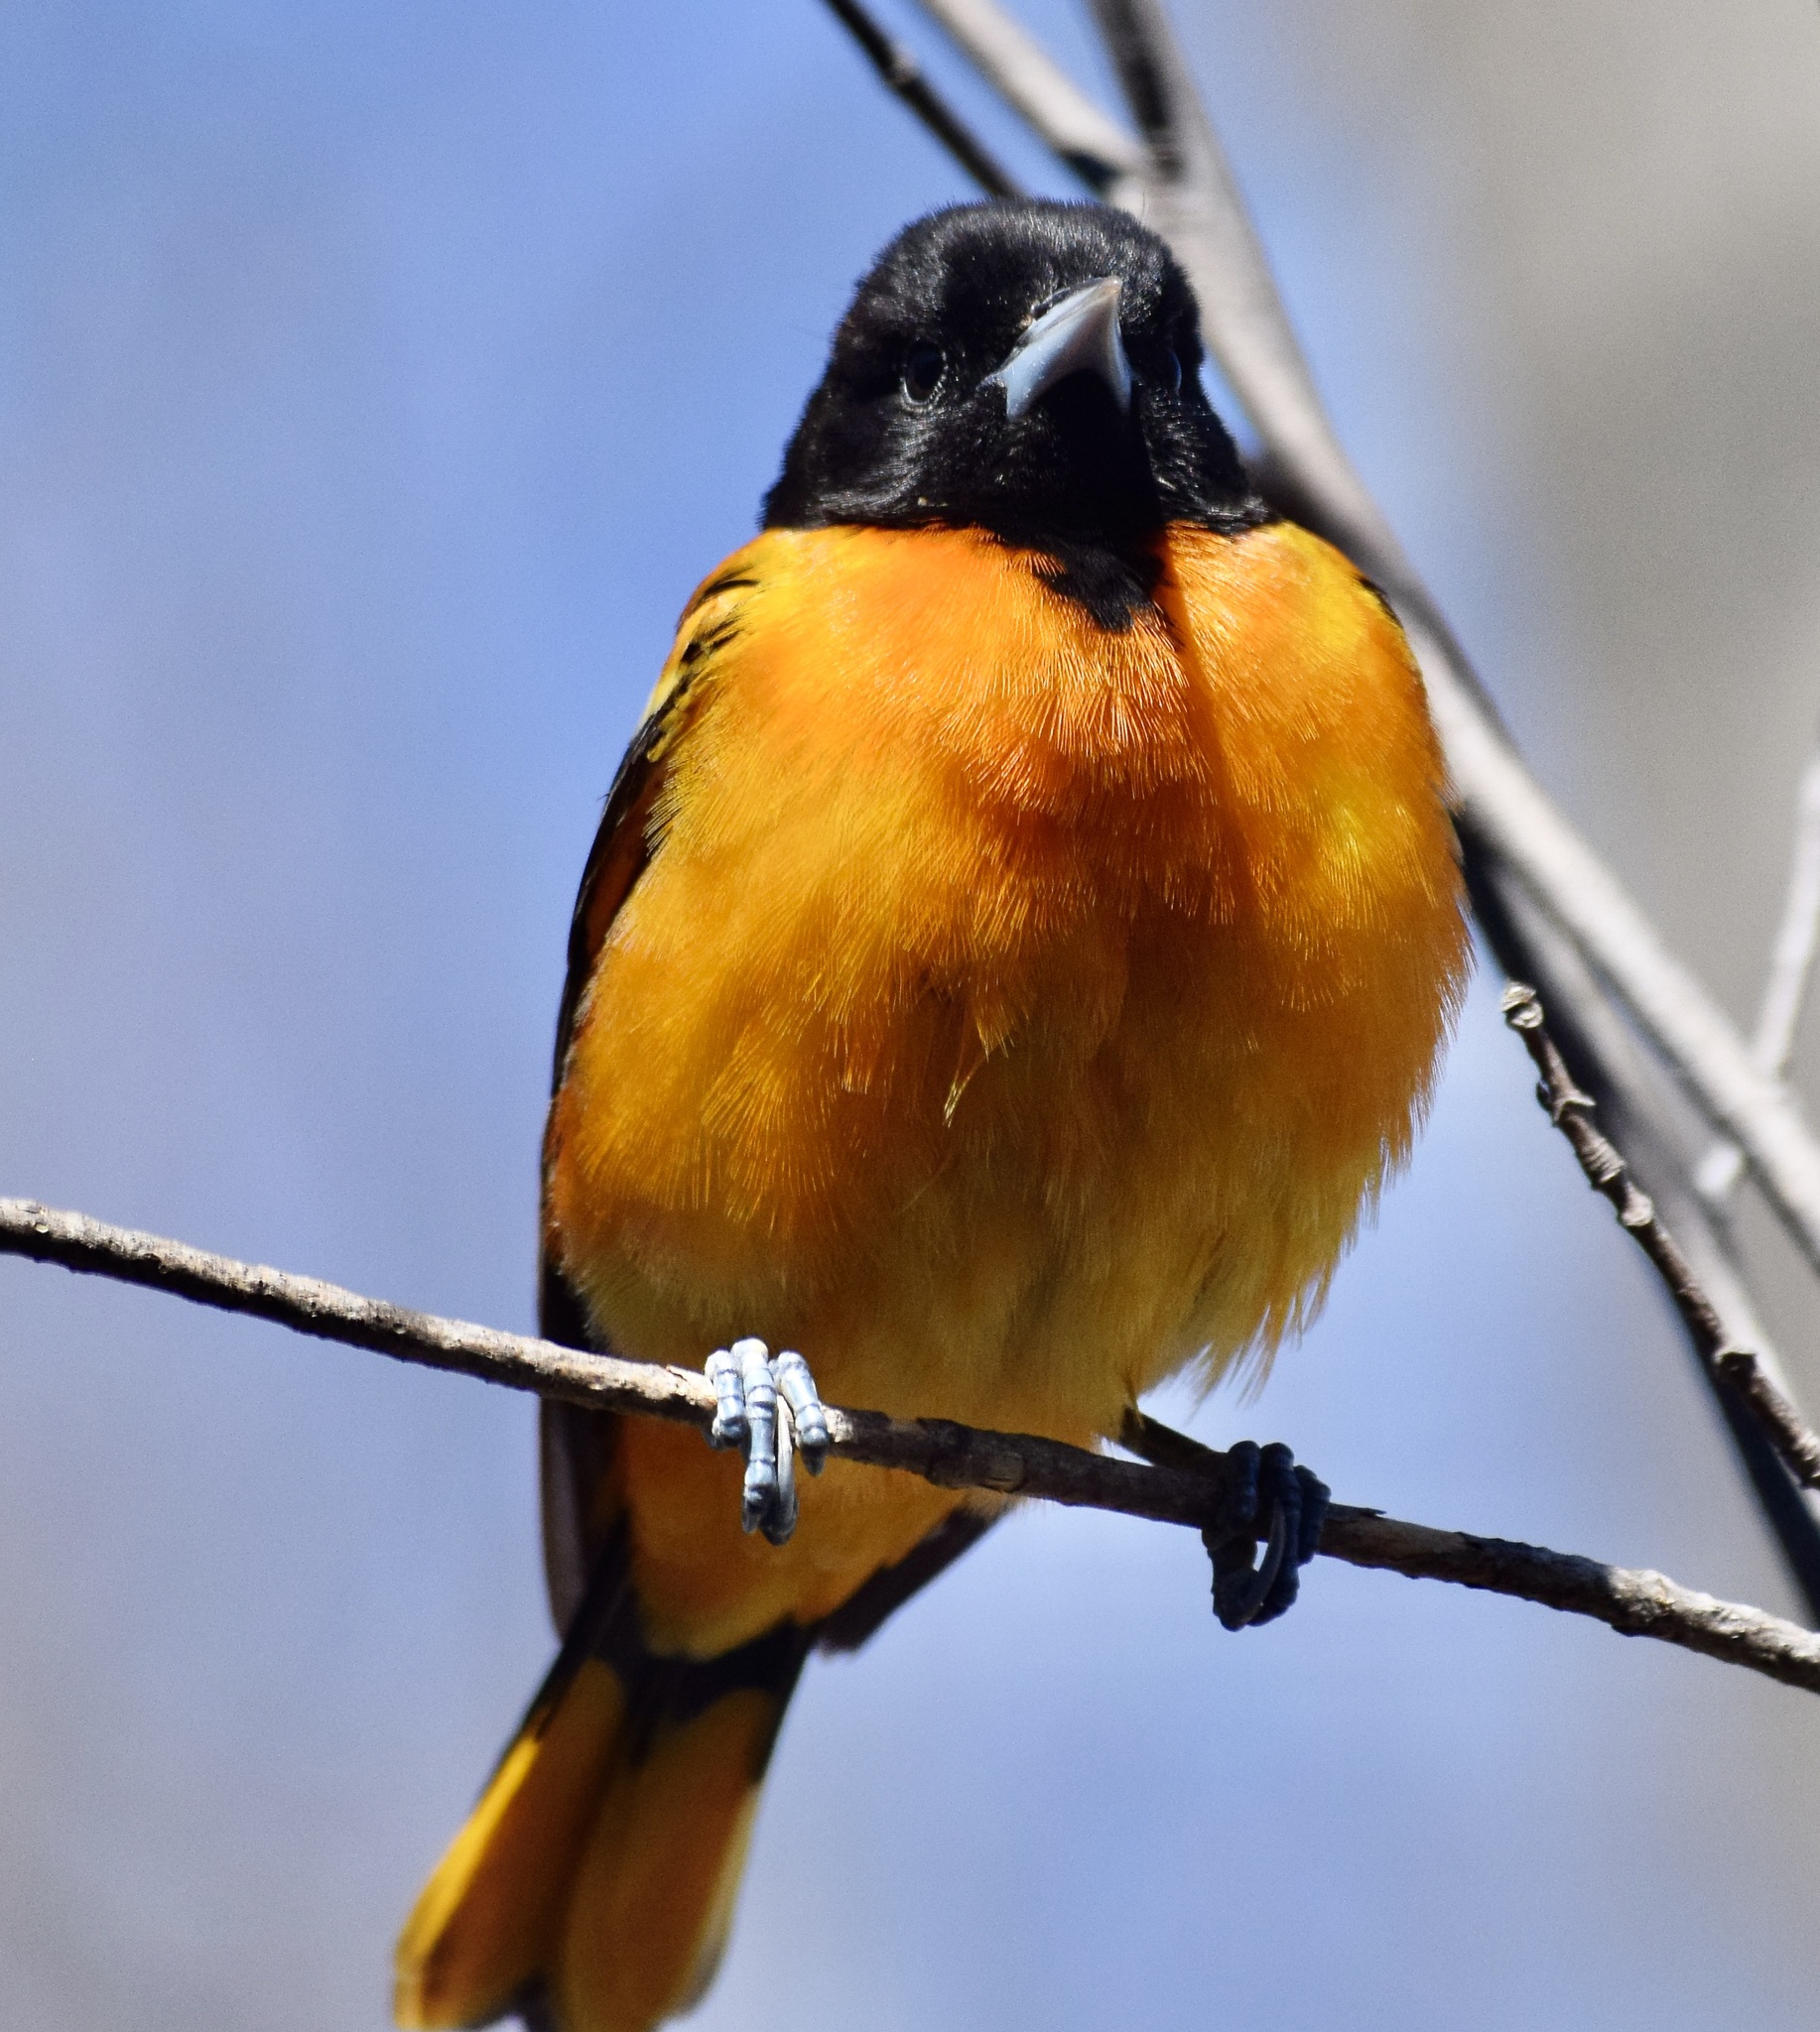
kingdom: Animalia
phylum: Chordata
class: Aves
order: Passeriformes
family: Icteridae
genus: Icterus
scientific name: Icterus galbula
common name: Baltimore oriole
